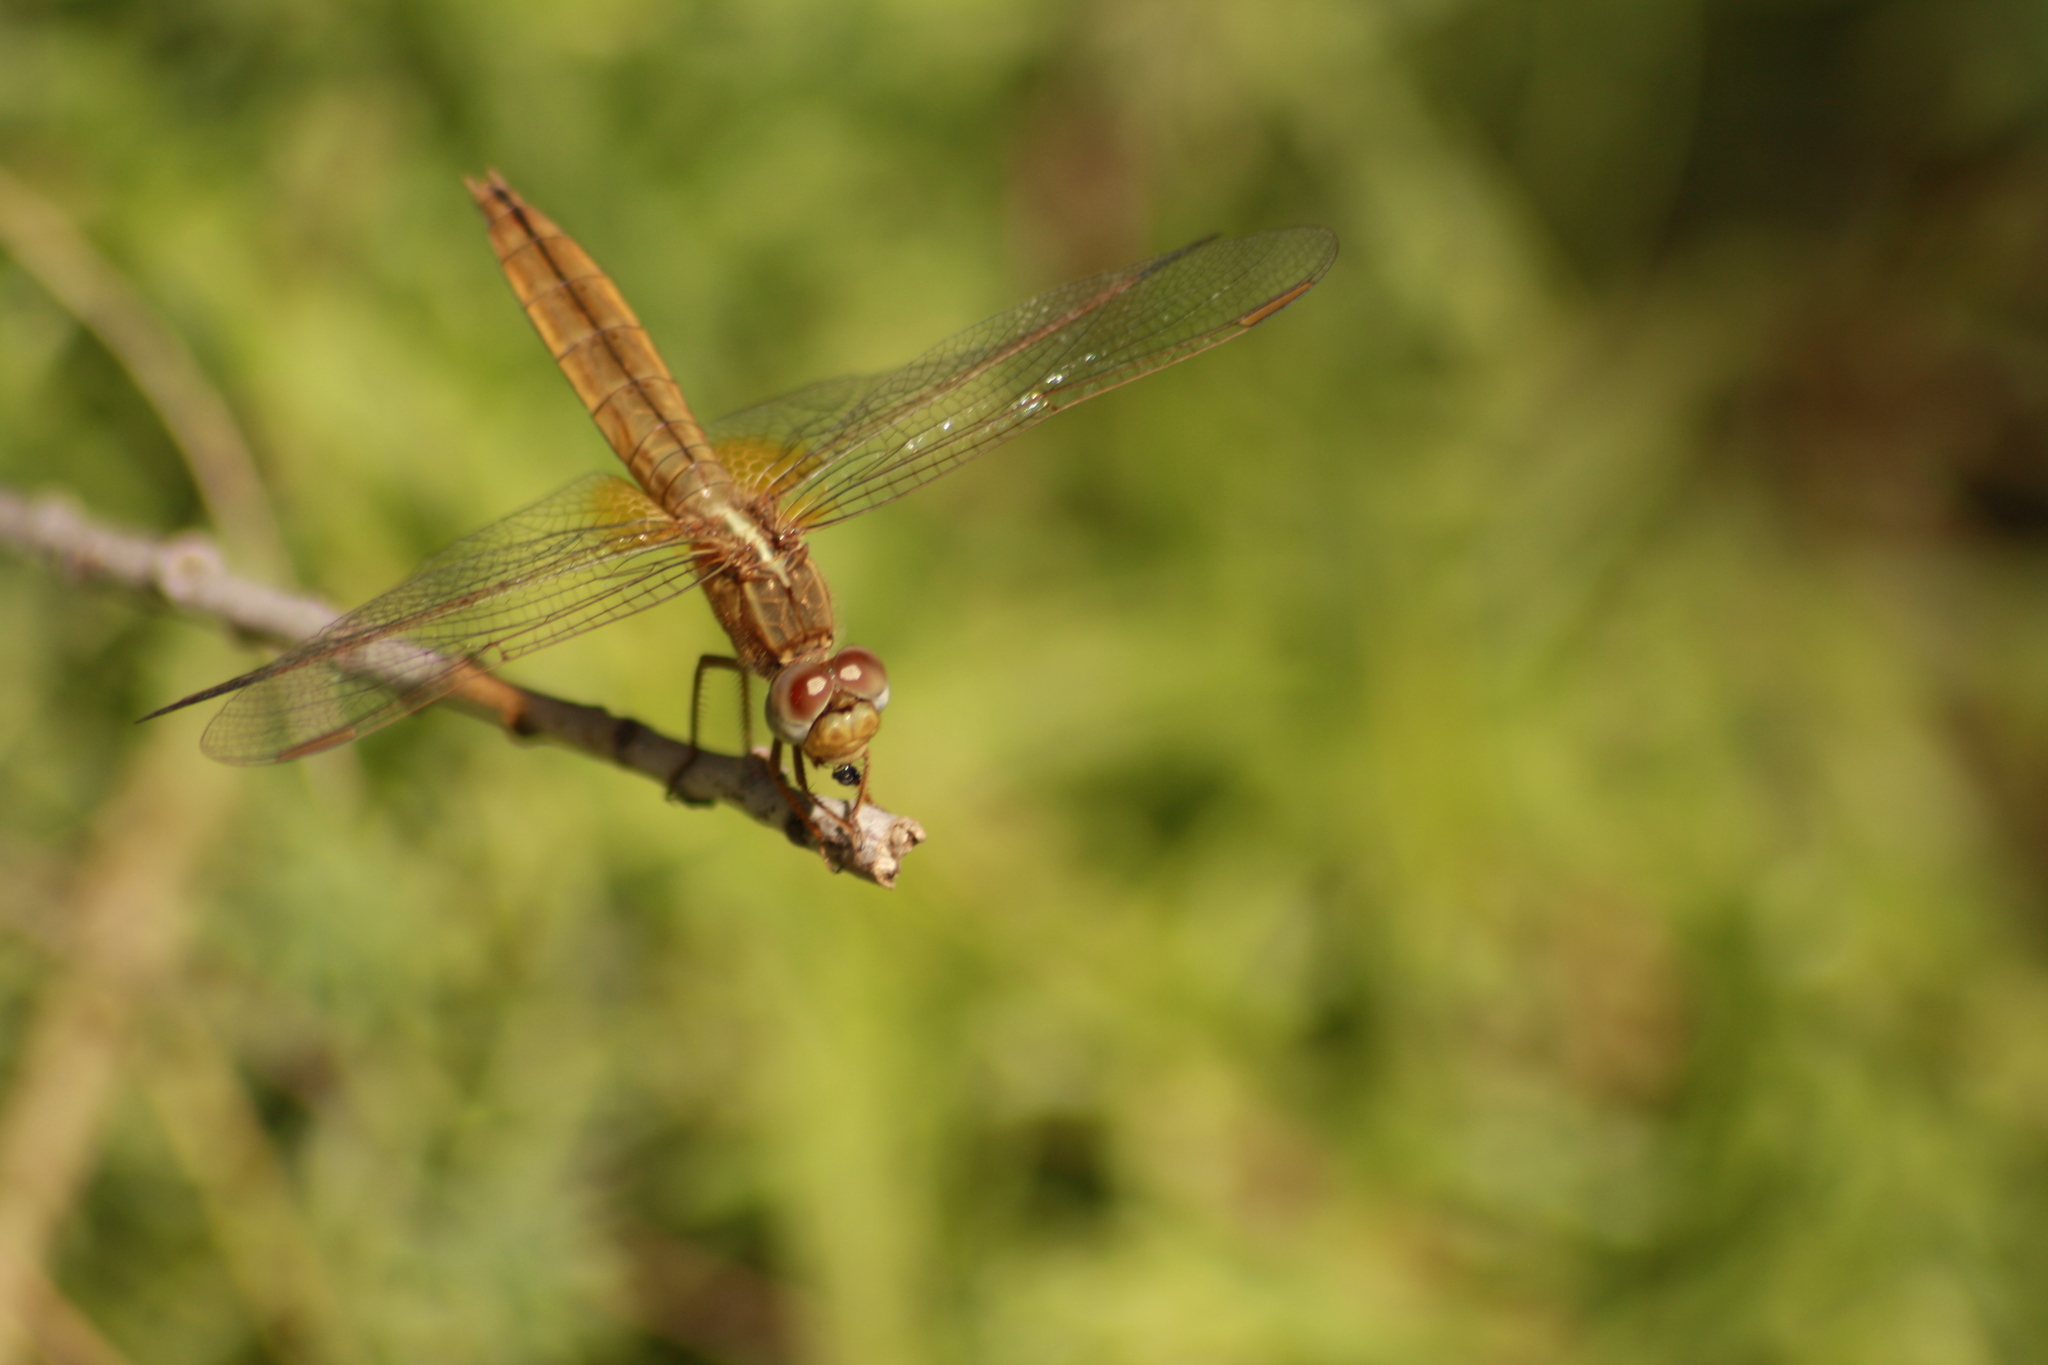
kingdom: Animalia
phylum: Arthropoda
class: Insecta
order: Odonata
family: Libellulidae
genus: Crocothemis
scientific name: Crocothemis erythraea
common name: Scarlet dragonfly
